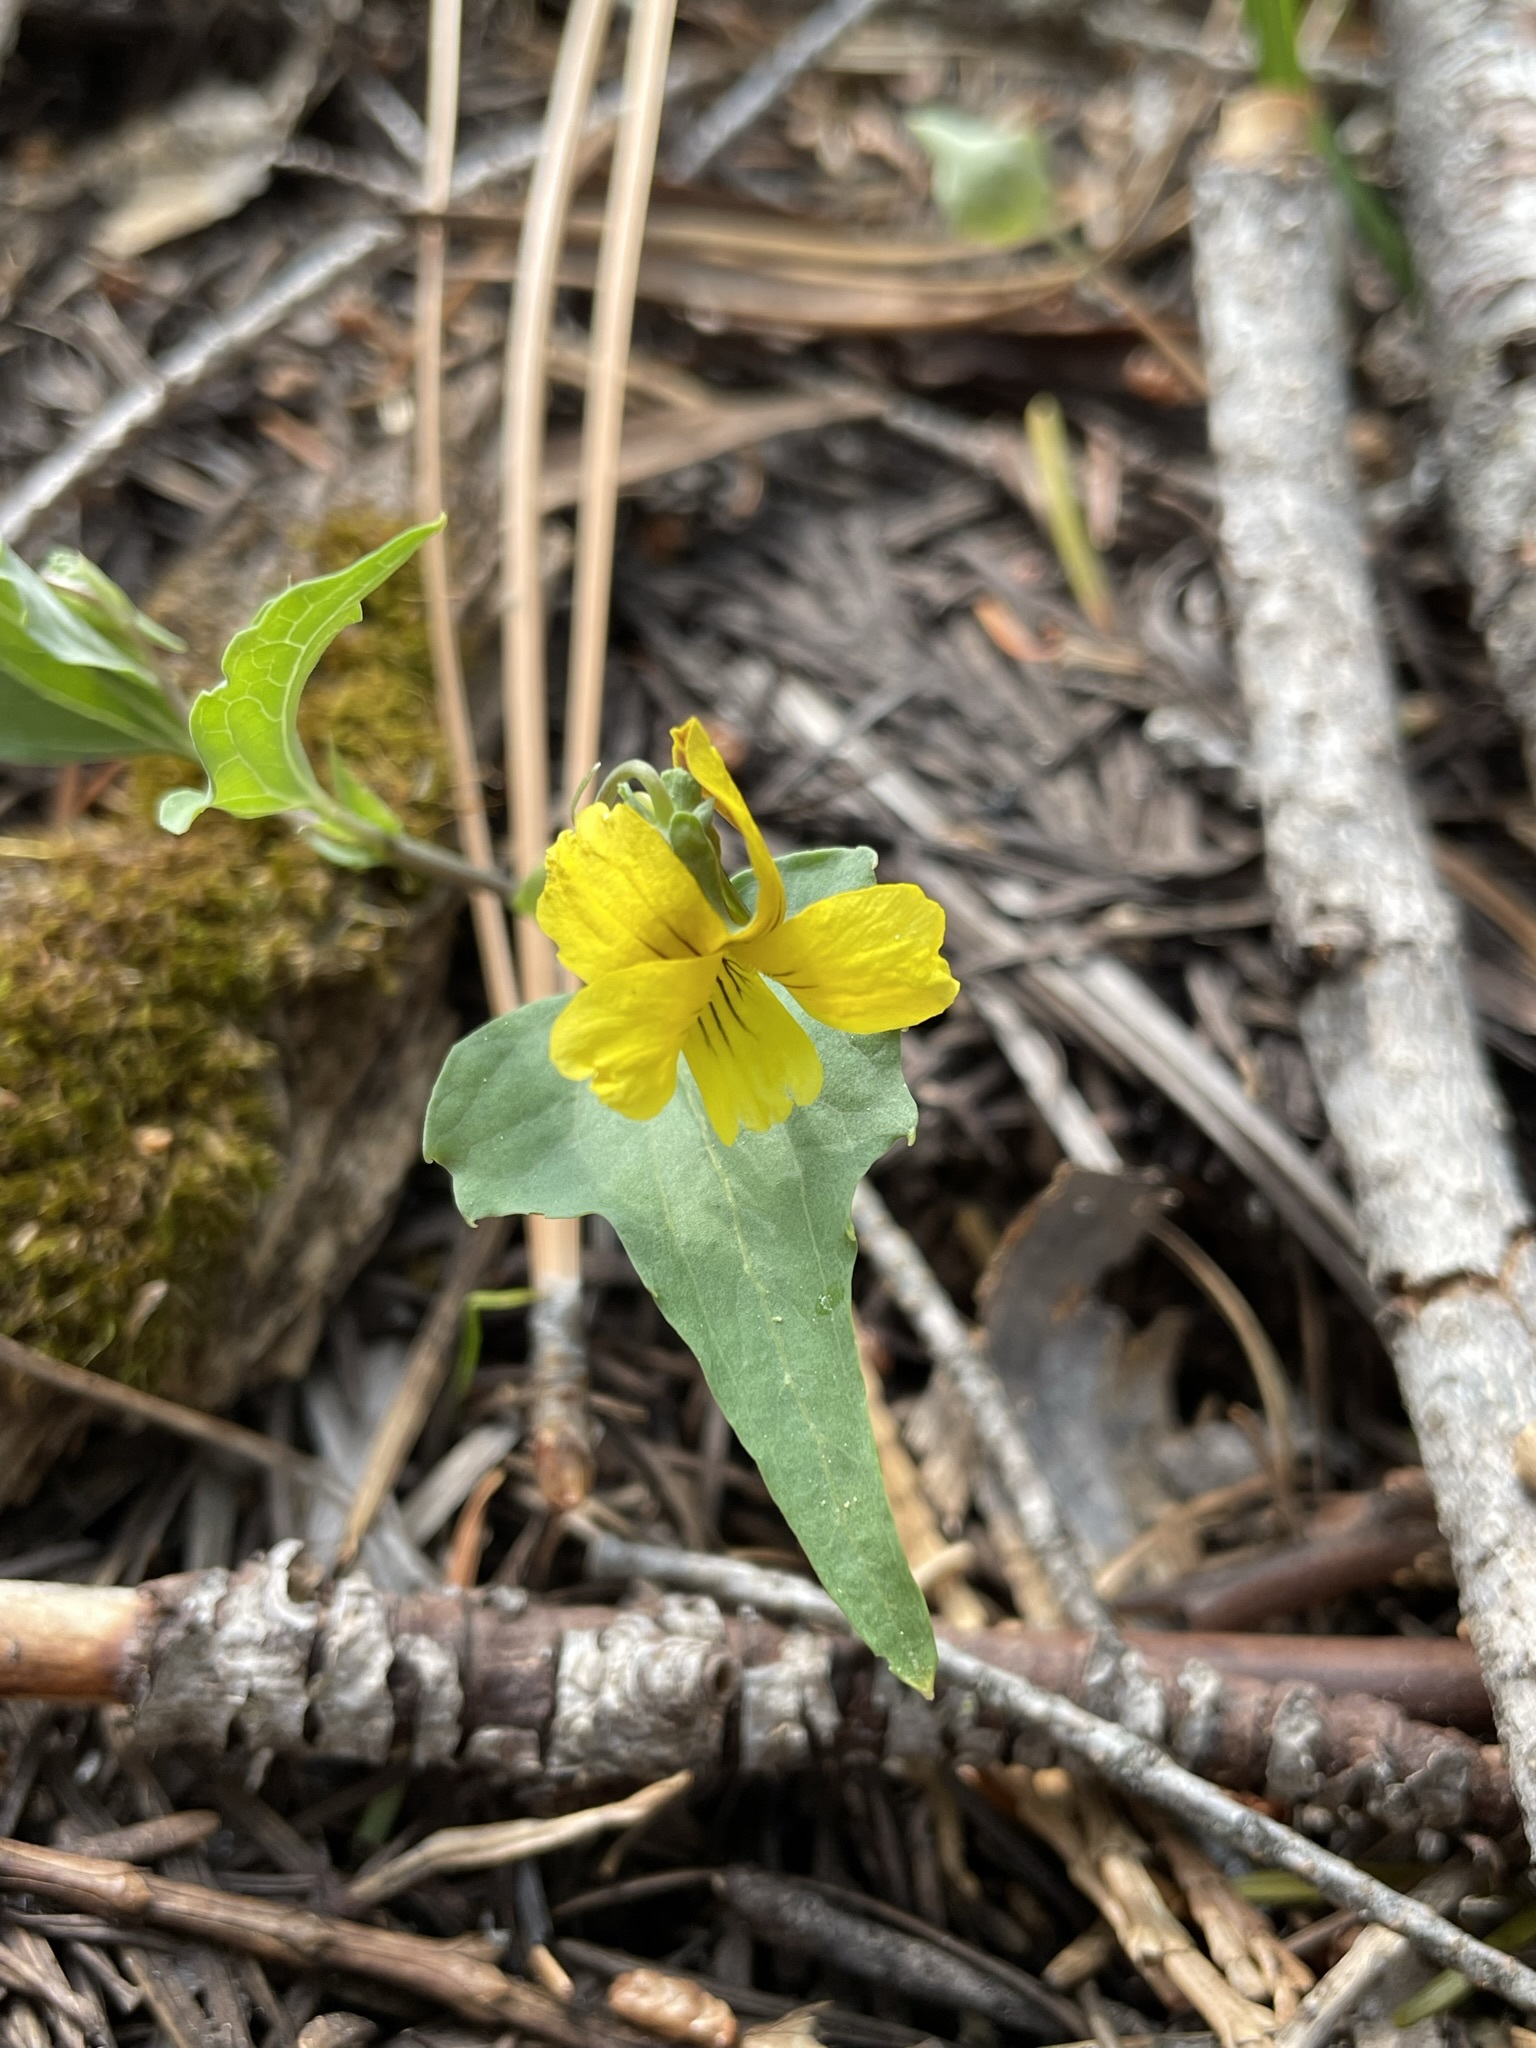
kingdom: Plantae
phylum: Tracheophyta
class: Magnoliopsida
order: Malpighiales
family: Violaceae
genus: Viola
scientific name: Viola lobata
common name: Pine violet
